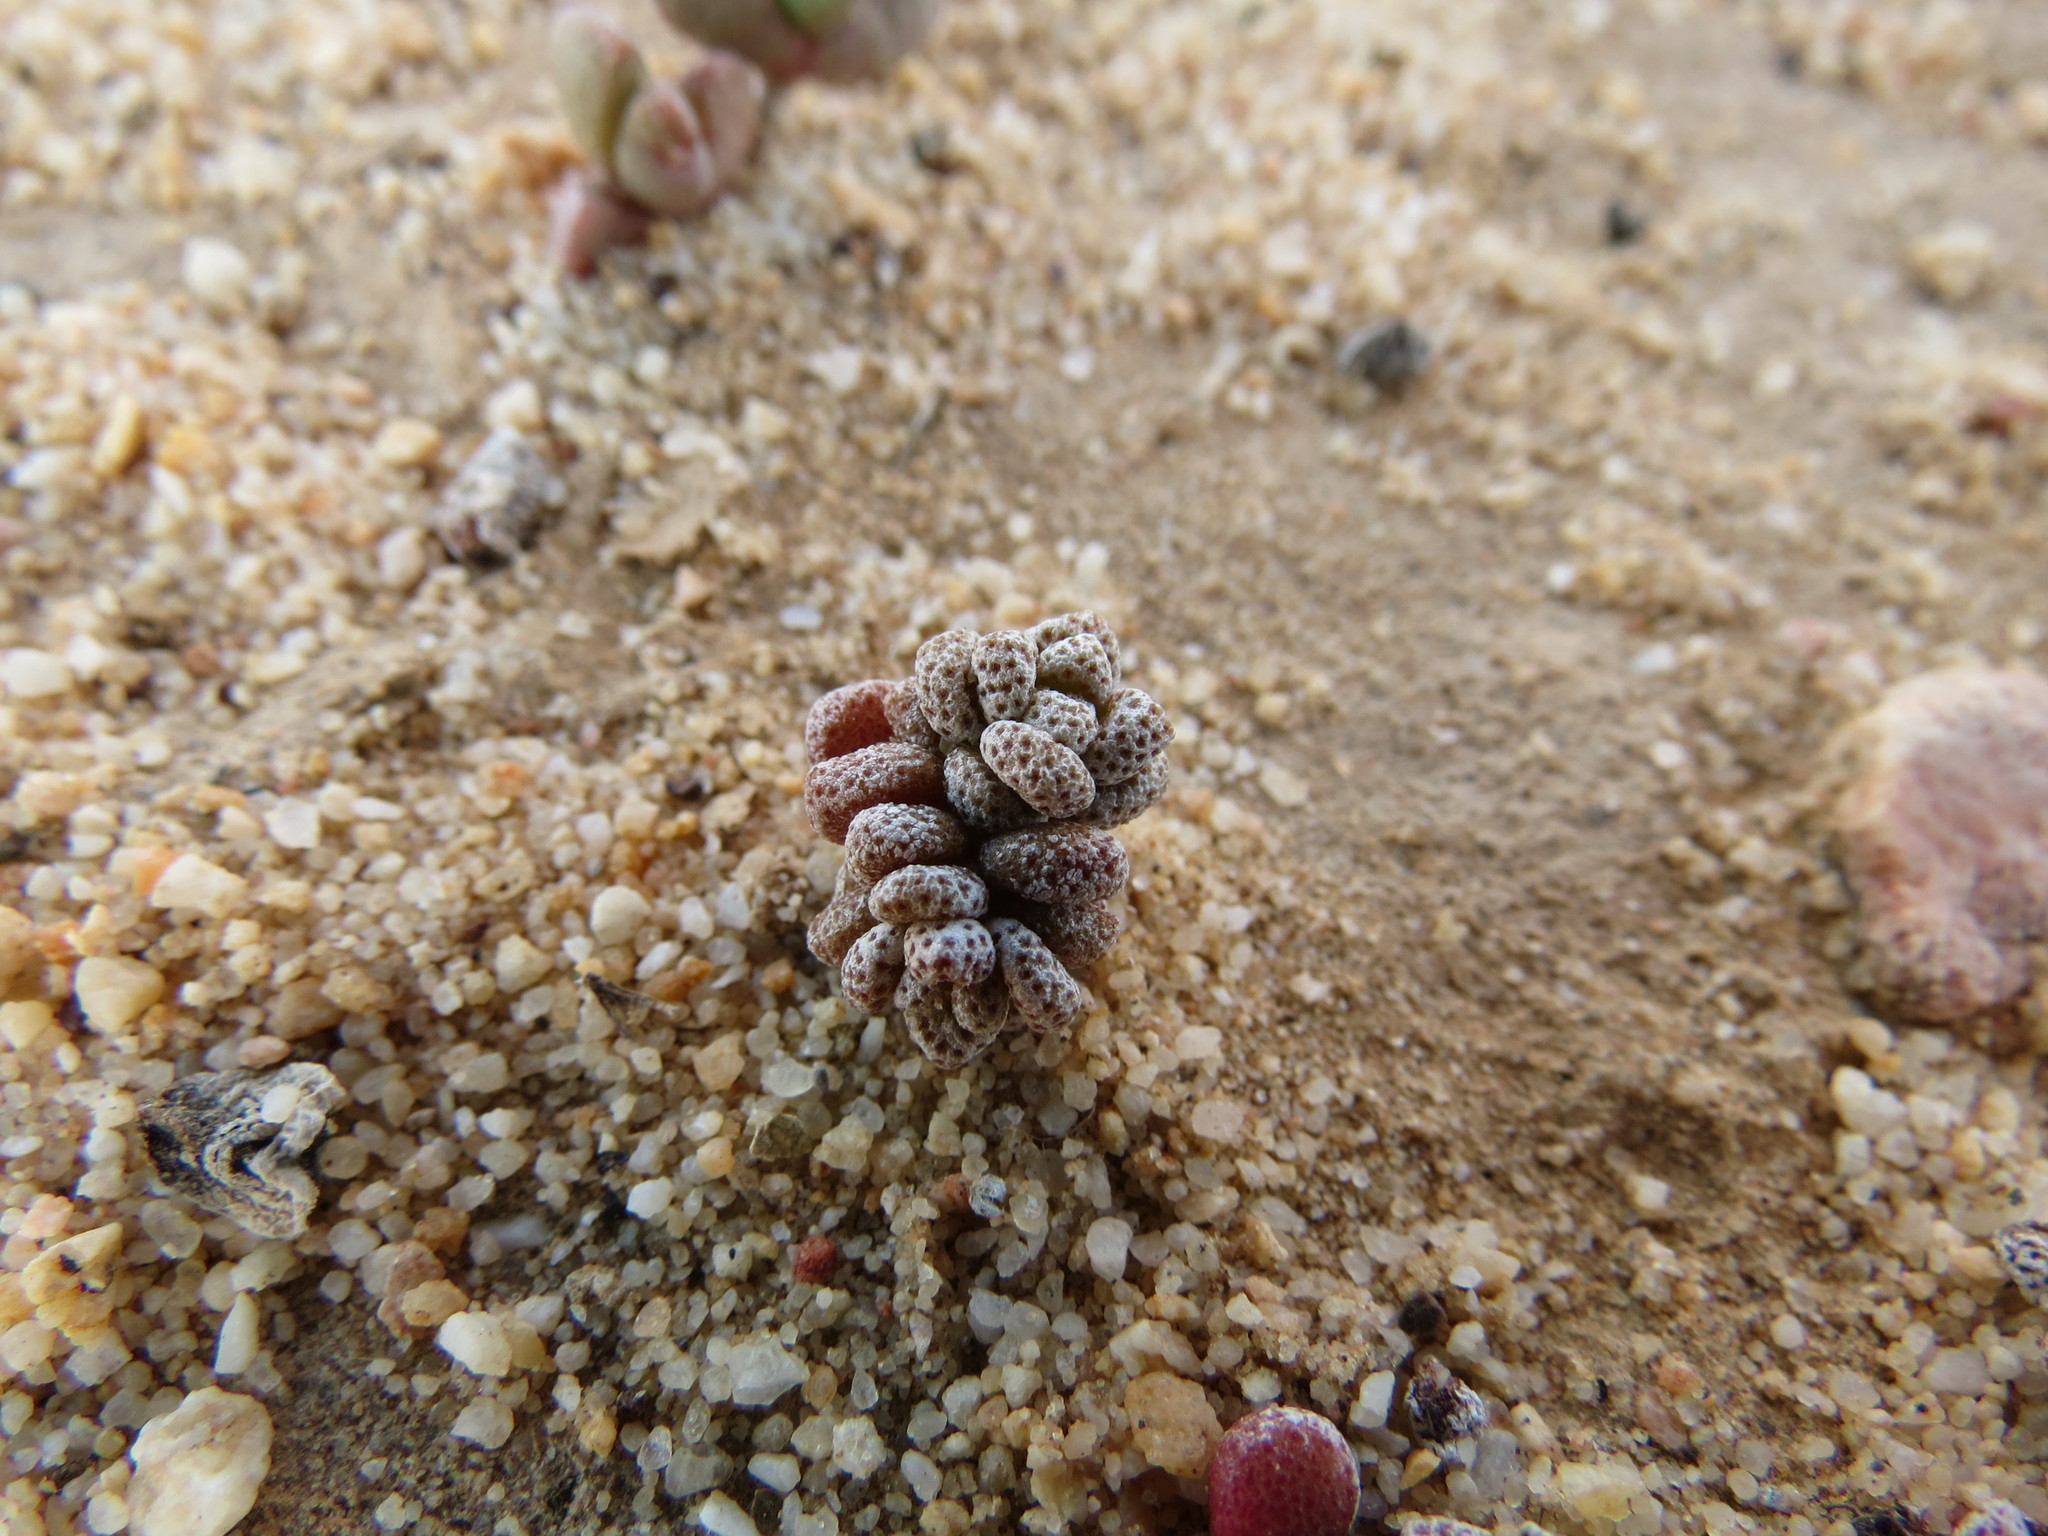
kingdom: Plantae
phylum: Tracheophyta
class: Magnoliopsida
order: Saxifragales
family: Crassulaceae
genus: Crassula
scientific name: Crassula corallina
